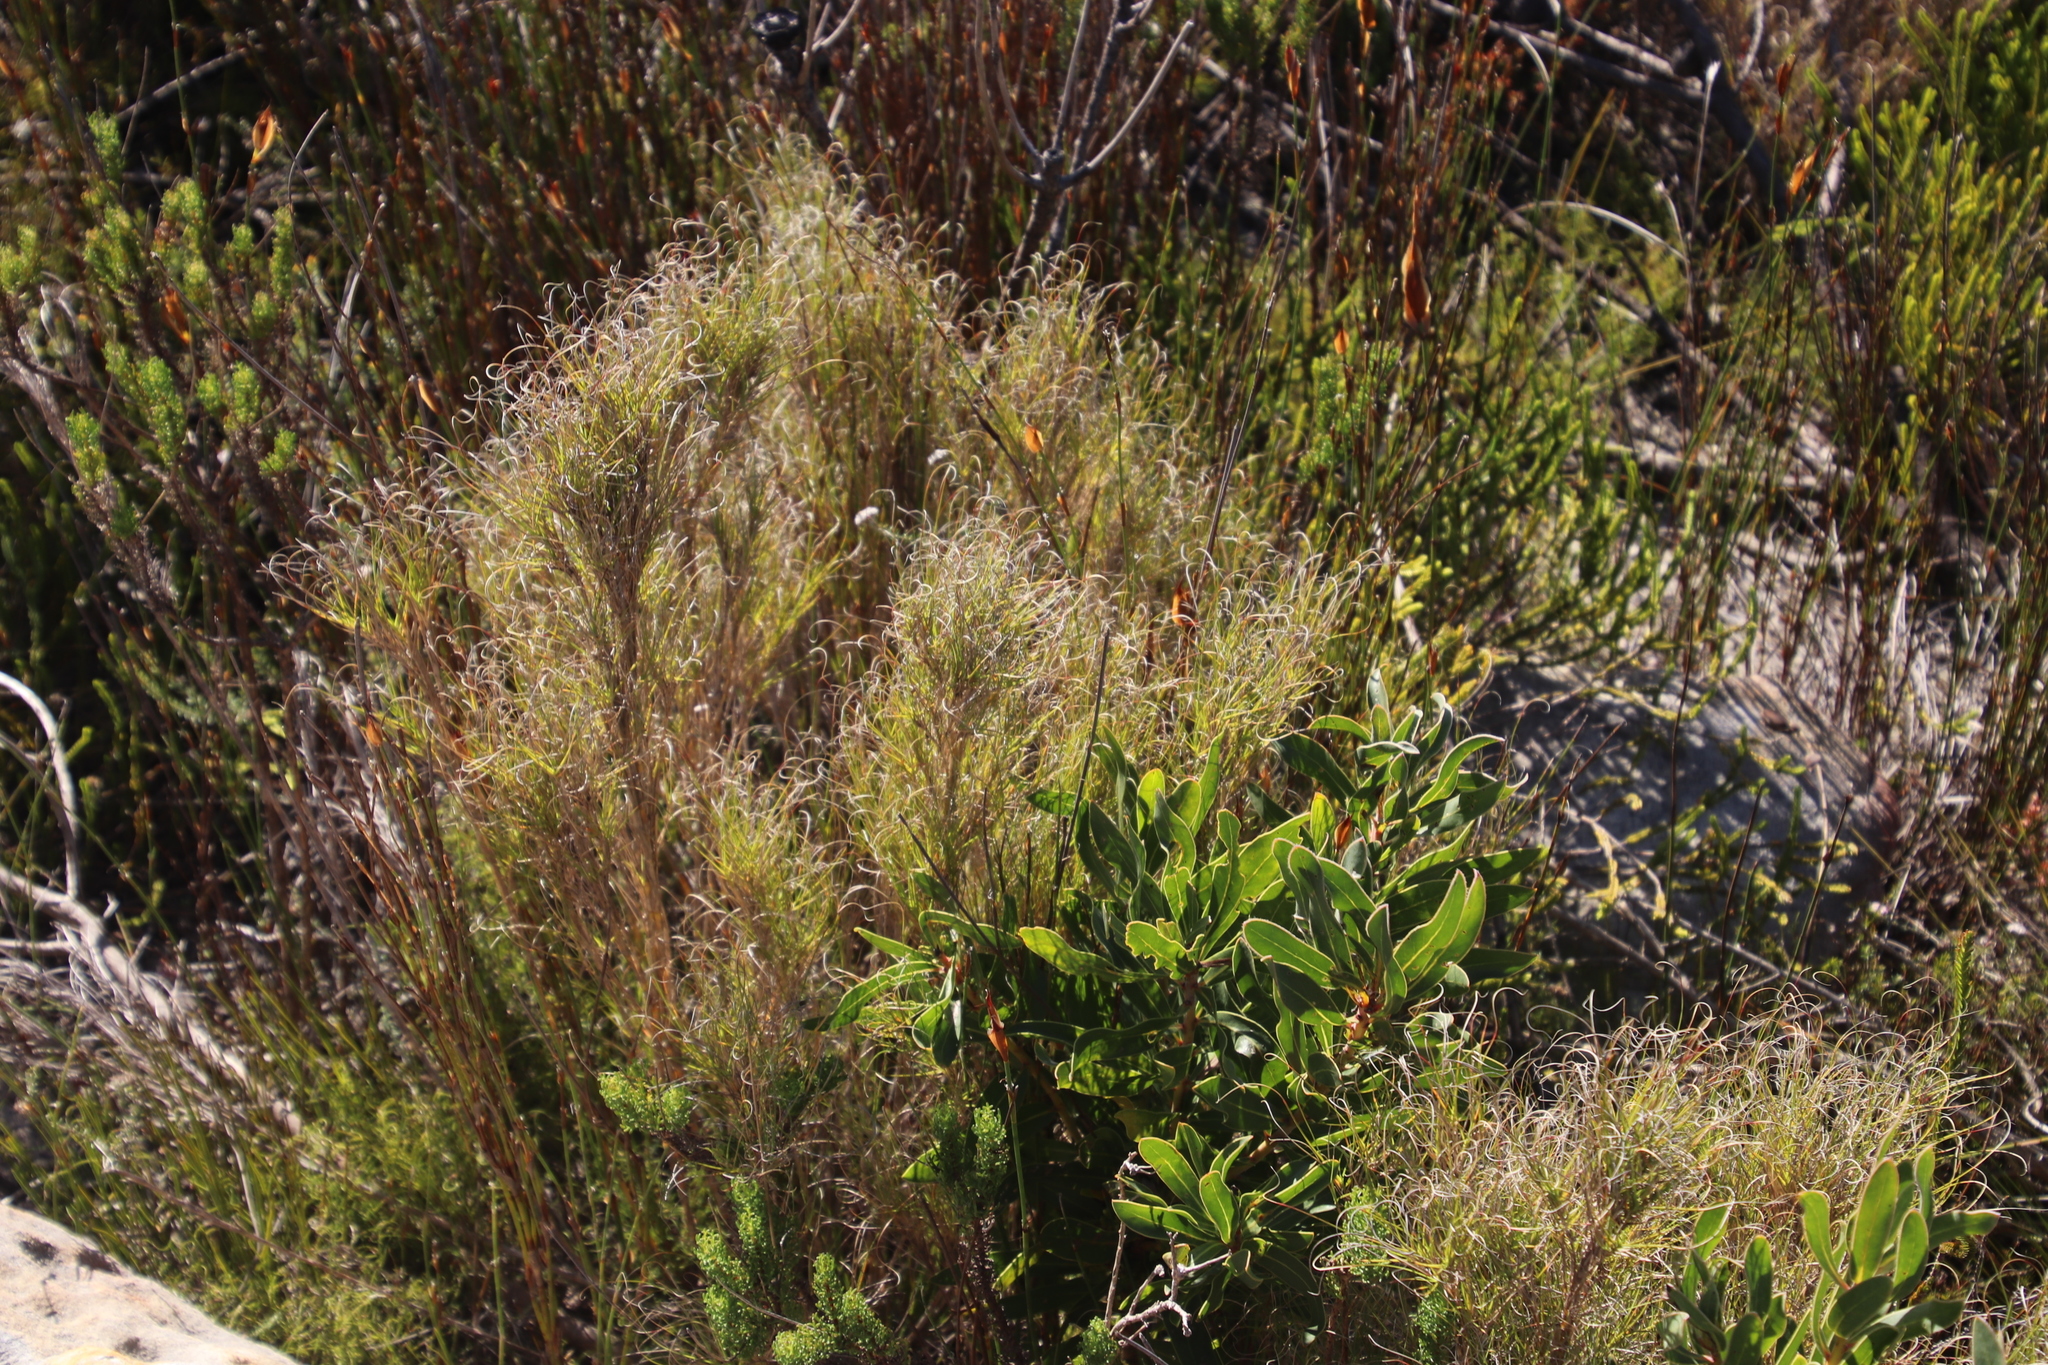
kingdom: Plantae
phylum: Tracheophyta
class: Liliopsida
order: Poales
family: Poaceae
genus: Pseudopentameris
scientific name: Pseudopentameris macrantha
